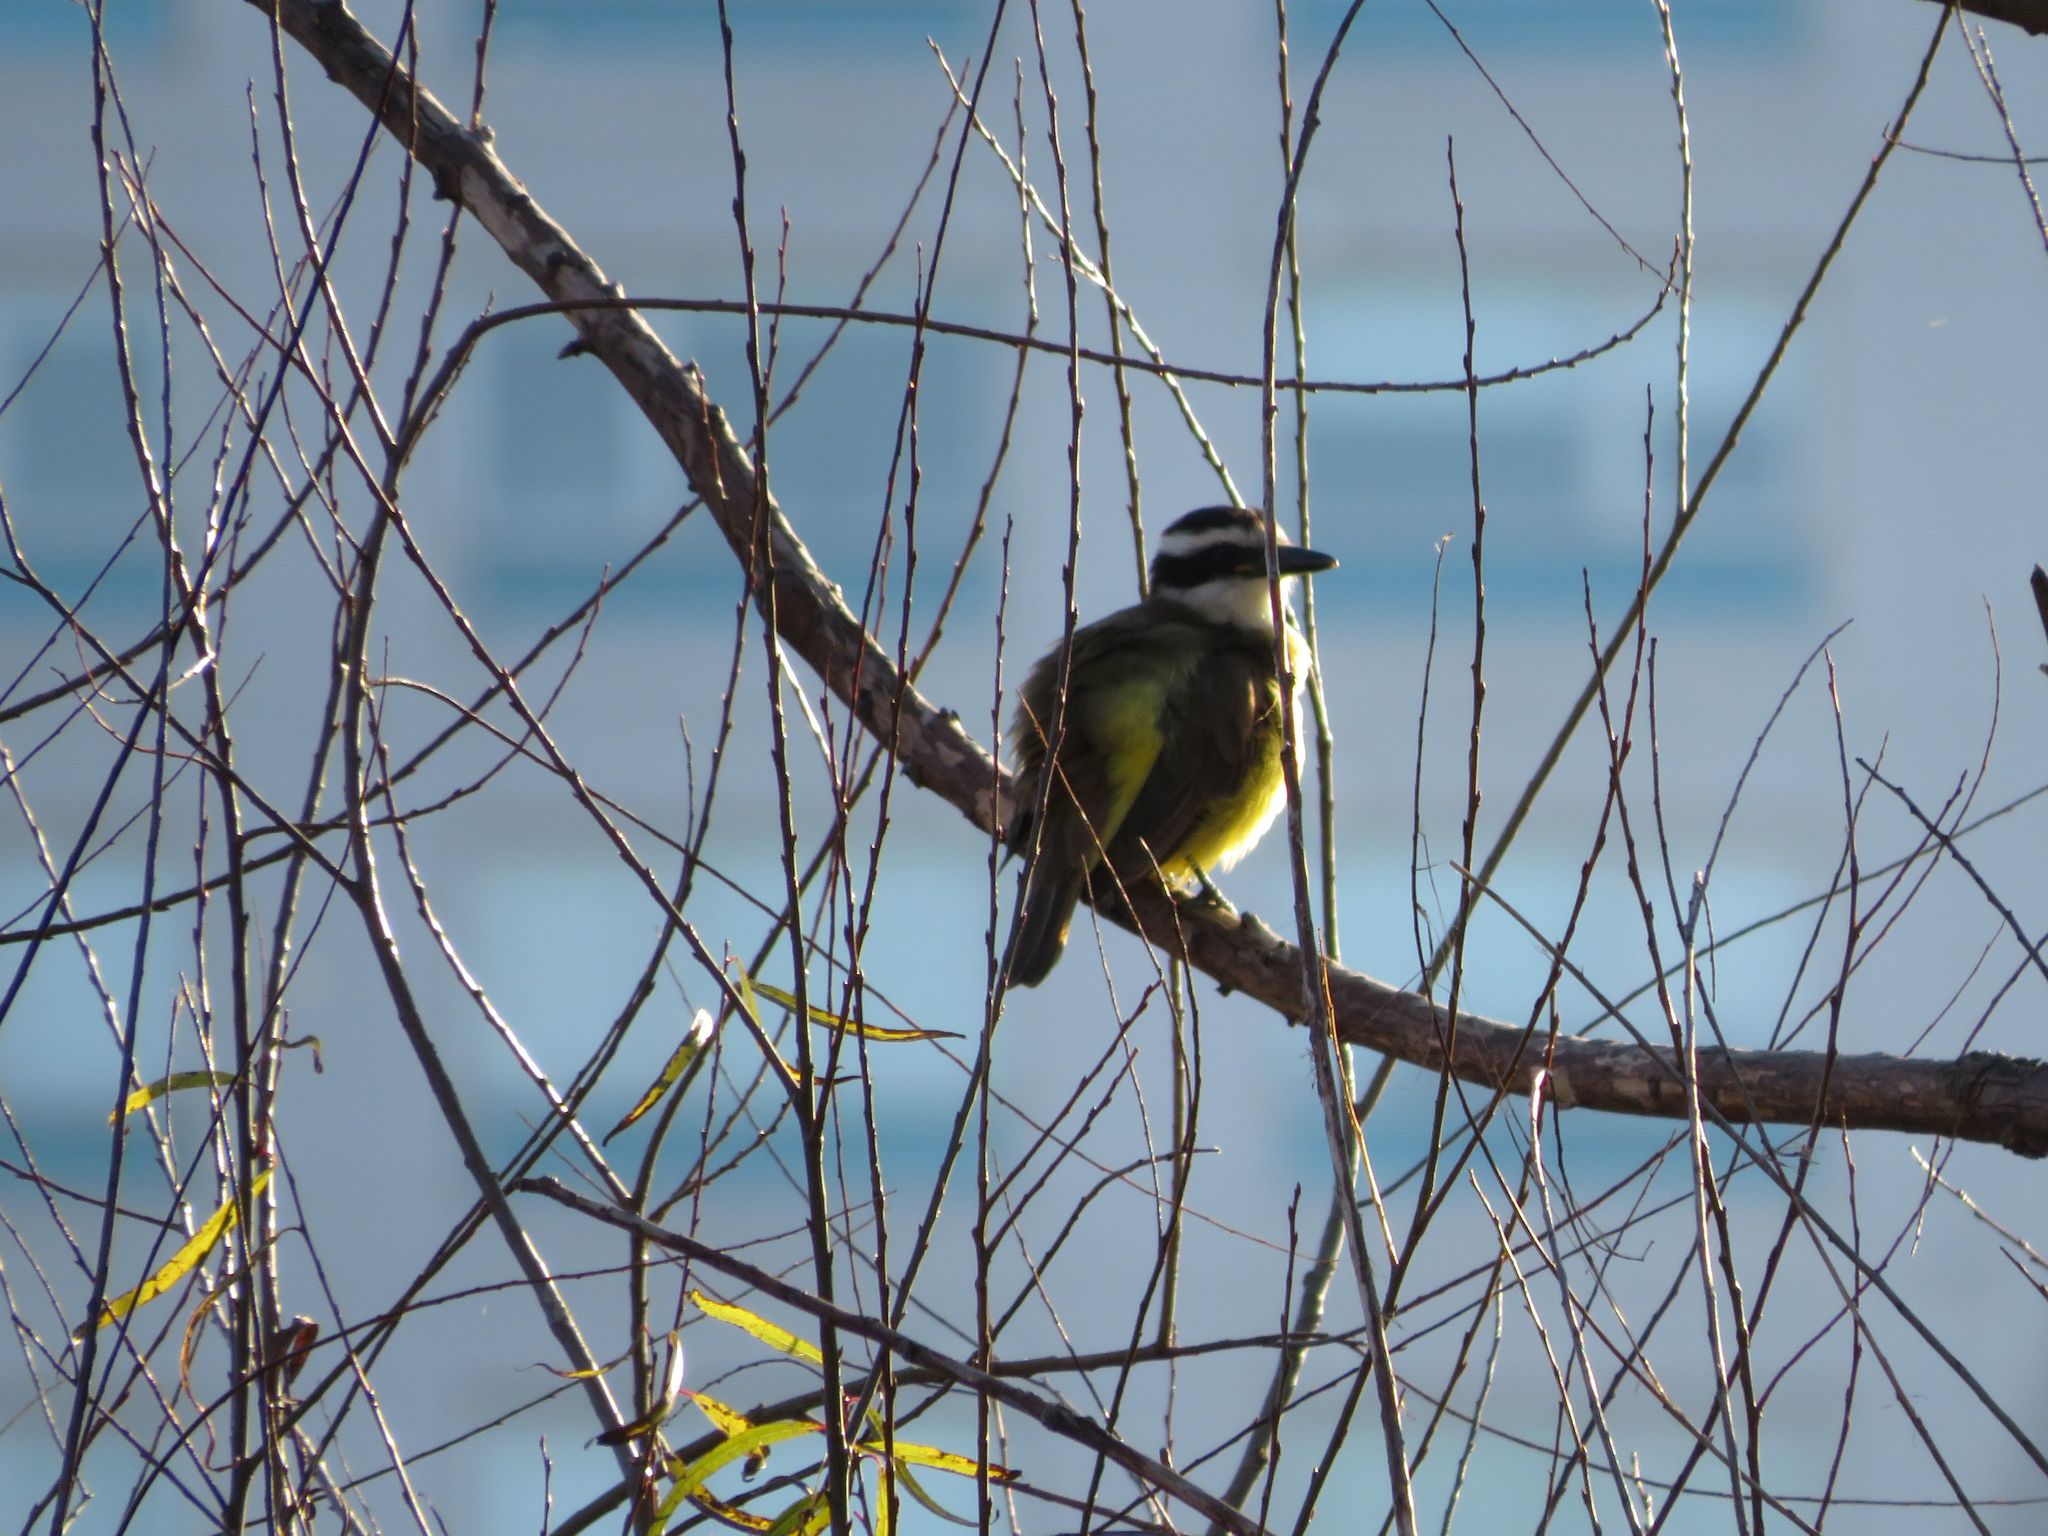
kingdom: Animalia
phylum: Chordata
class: Aves
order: Passeriformes
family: Tyrannidae
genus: Pitangus
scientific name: Pitangus sulphuratus
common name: Great kiskadee
